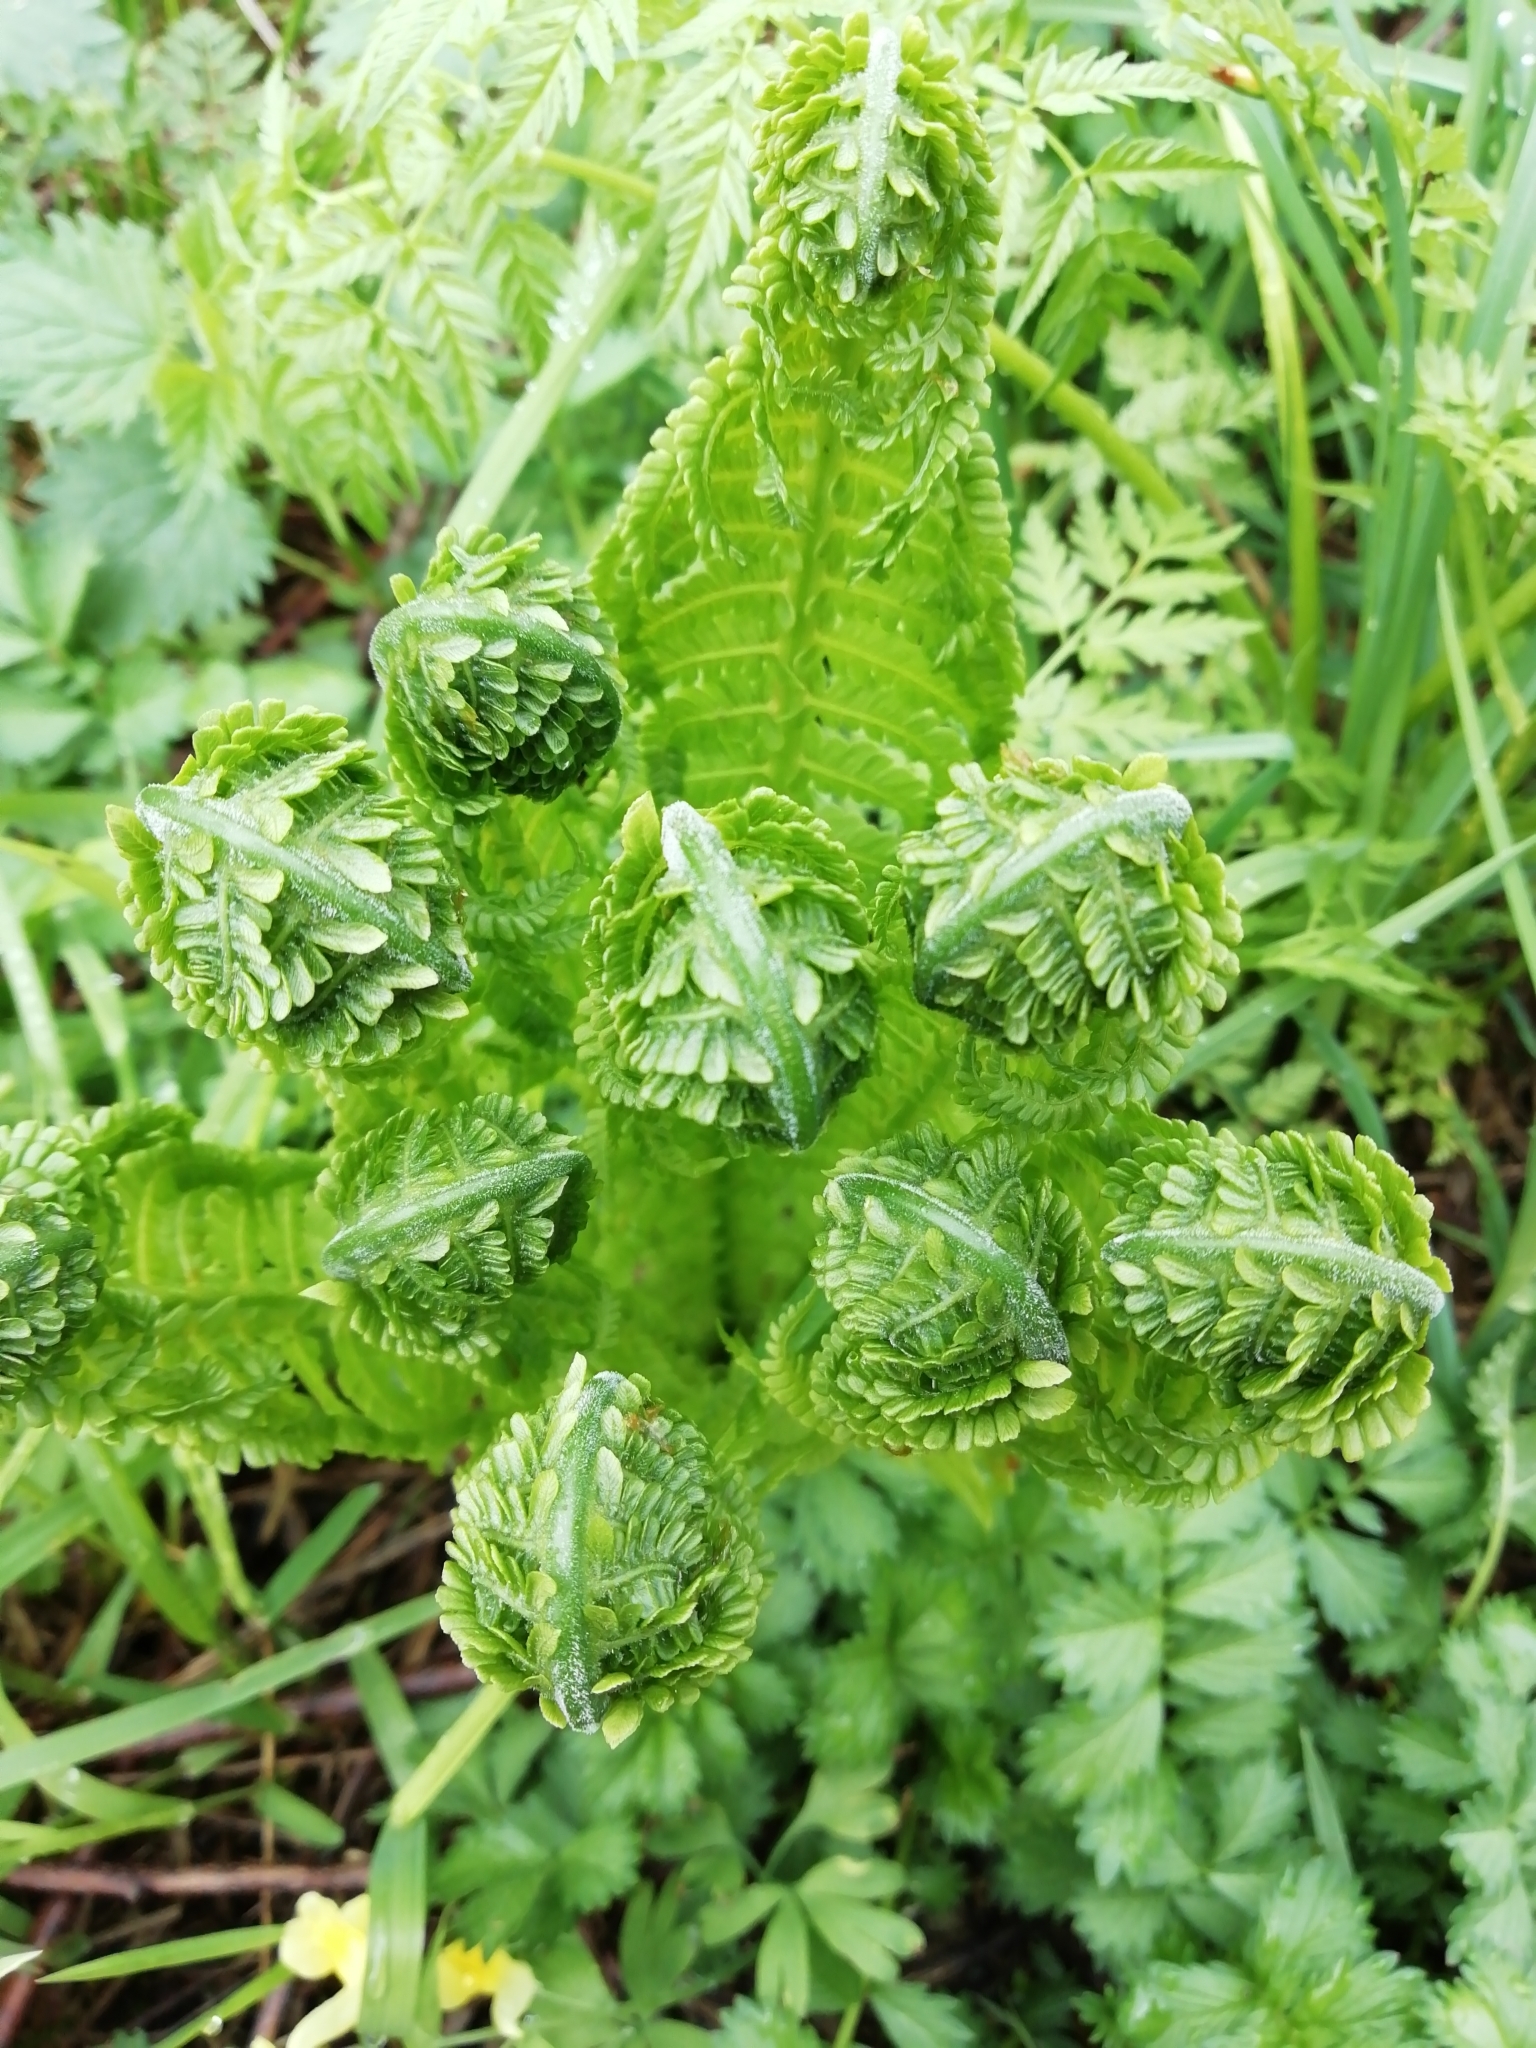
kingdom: Plantae
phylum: Tracheophyta
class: Polypodiopsida
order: Polypodiales
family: Onocleaceae
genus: Matteuccia
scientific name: Matteuccia struthiopteris
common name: Ostrich fern
